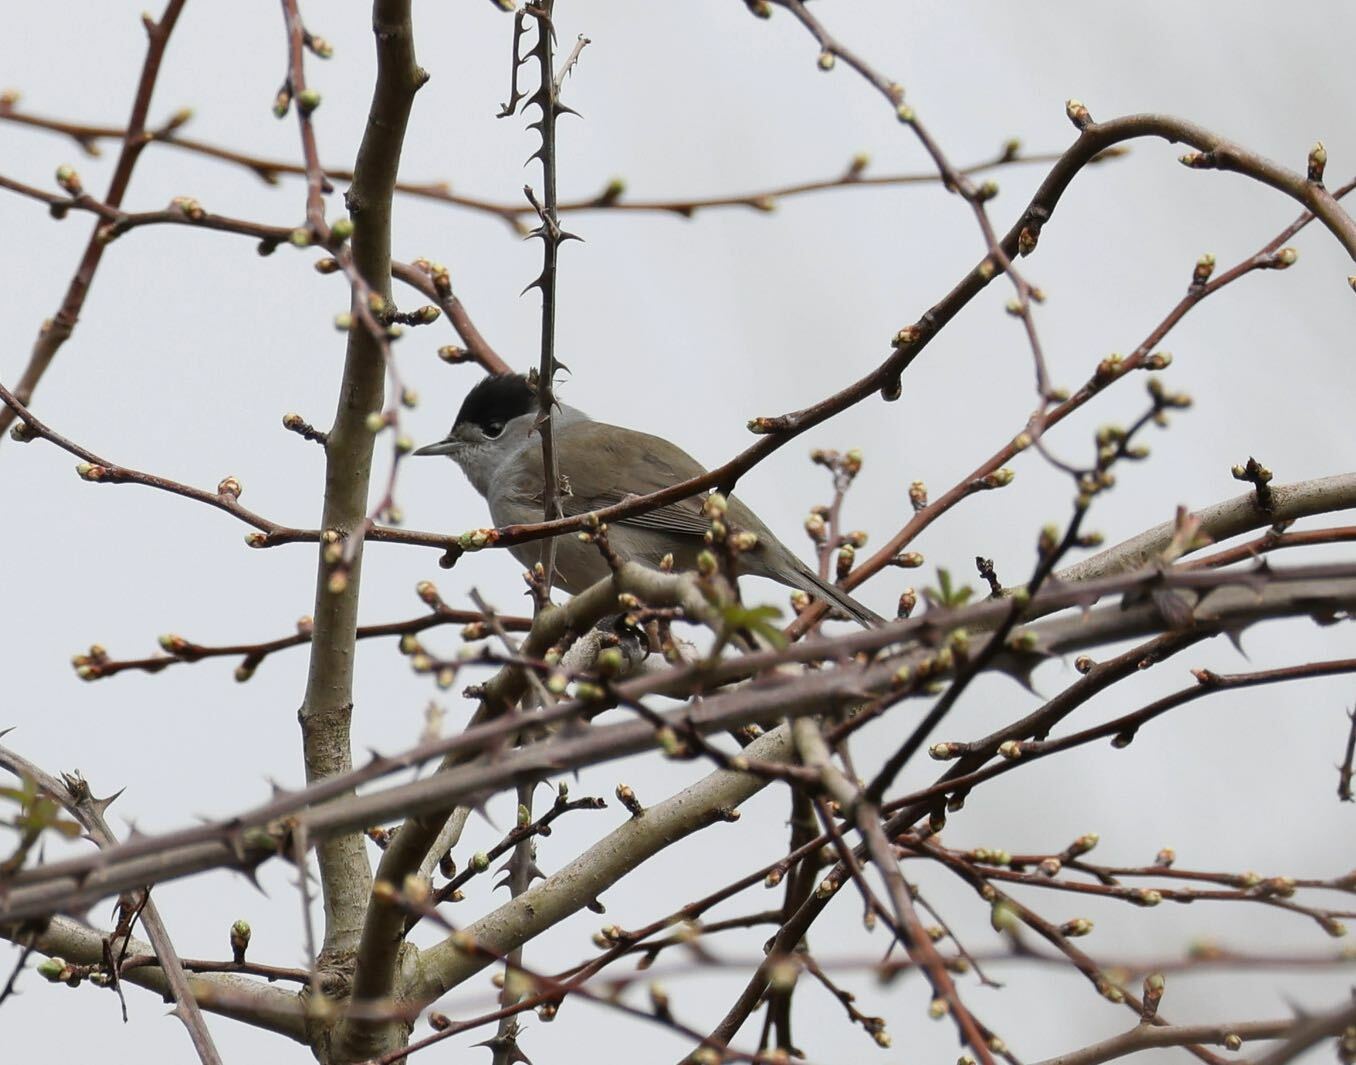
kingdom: Animalia
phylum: Chordata
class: Aves
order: Passeriformes
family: Sylviidae
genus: Sylvia
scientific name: Sylvia atricapilla
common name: Eurasian blackcap
